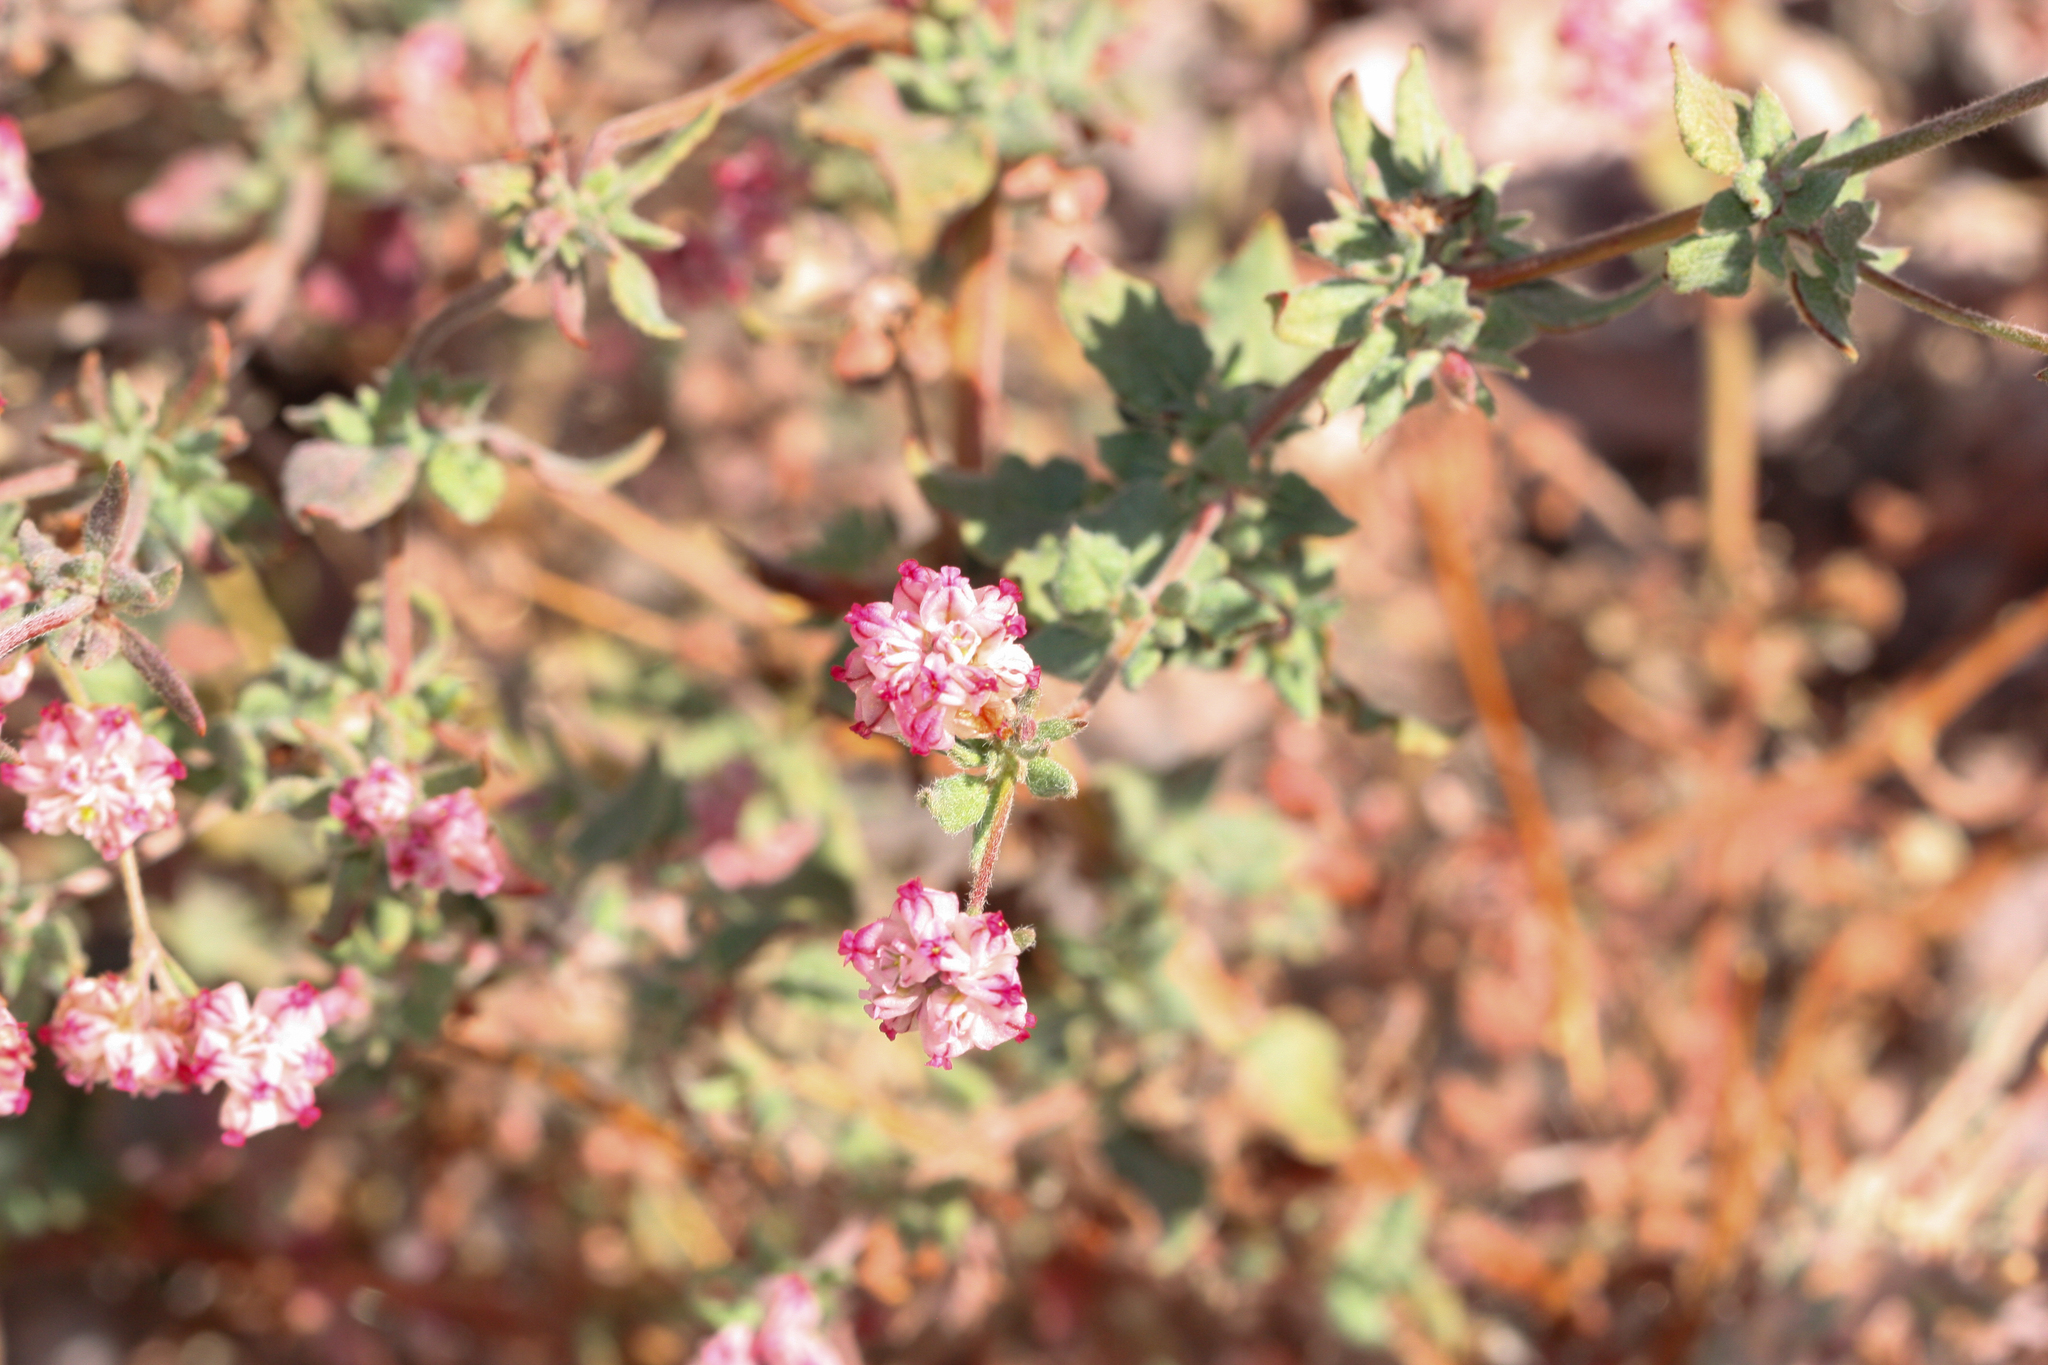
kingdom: Plantae
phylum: Tracheophyta
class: Magnoliopsida
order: Caryophyllales
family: Polygonaceae
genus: Eriogonum
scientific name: Eriogonum abertianum
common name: Abert's wild buckwheat
